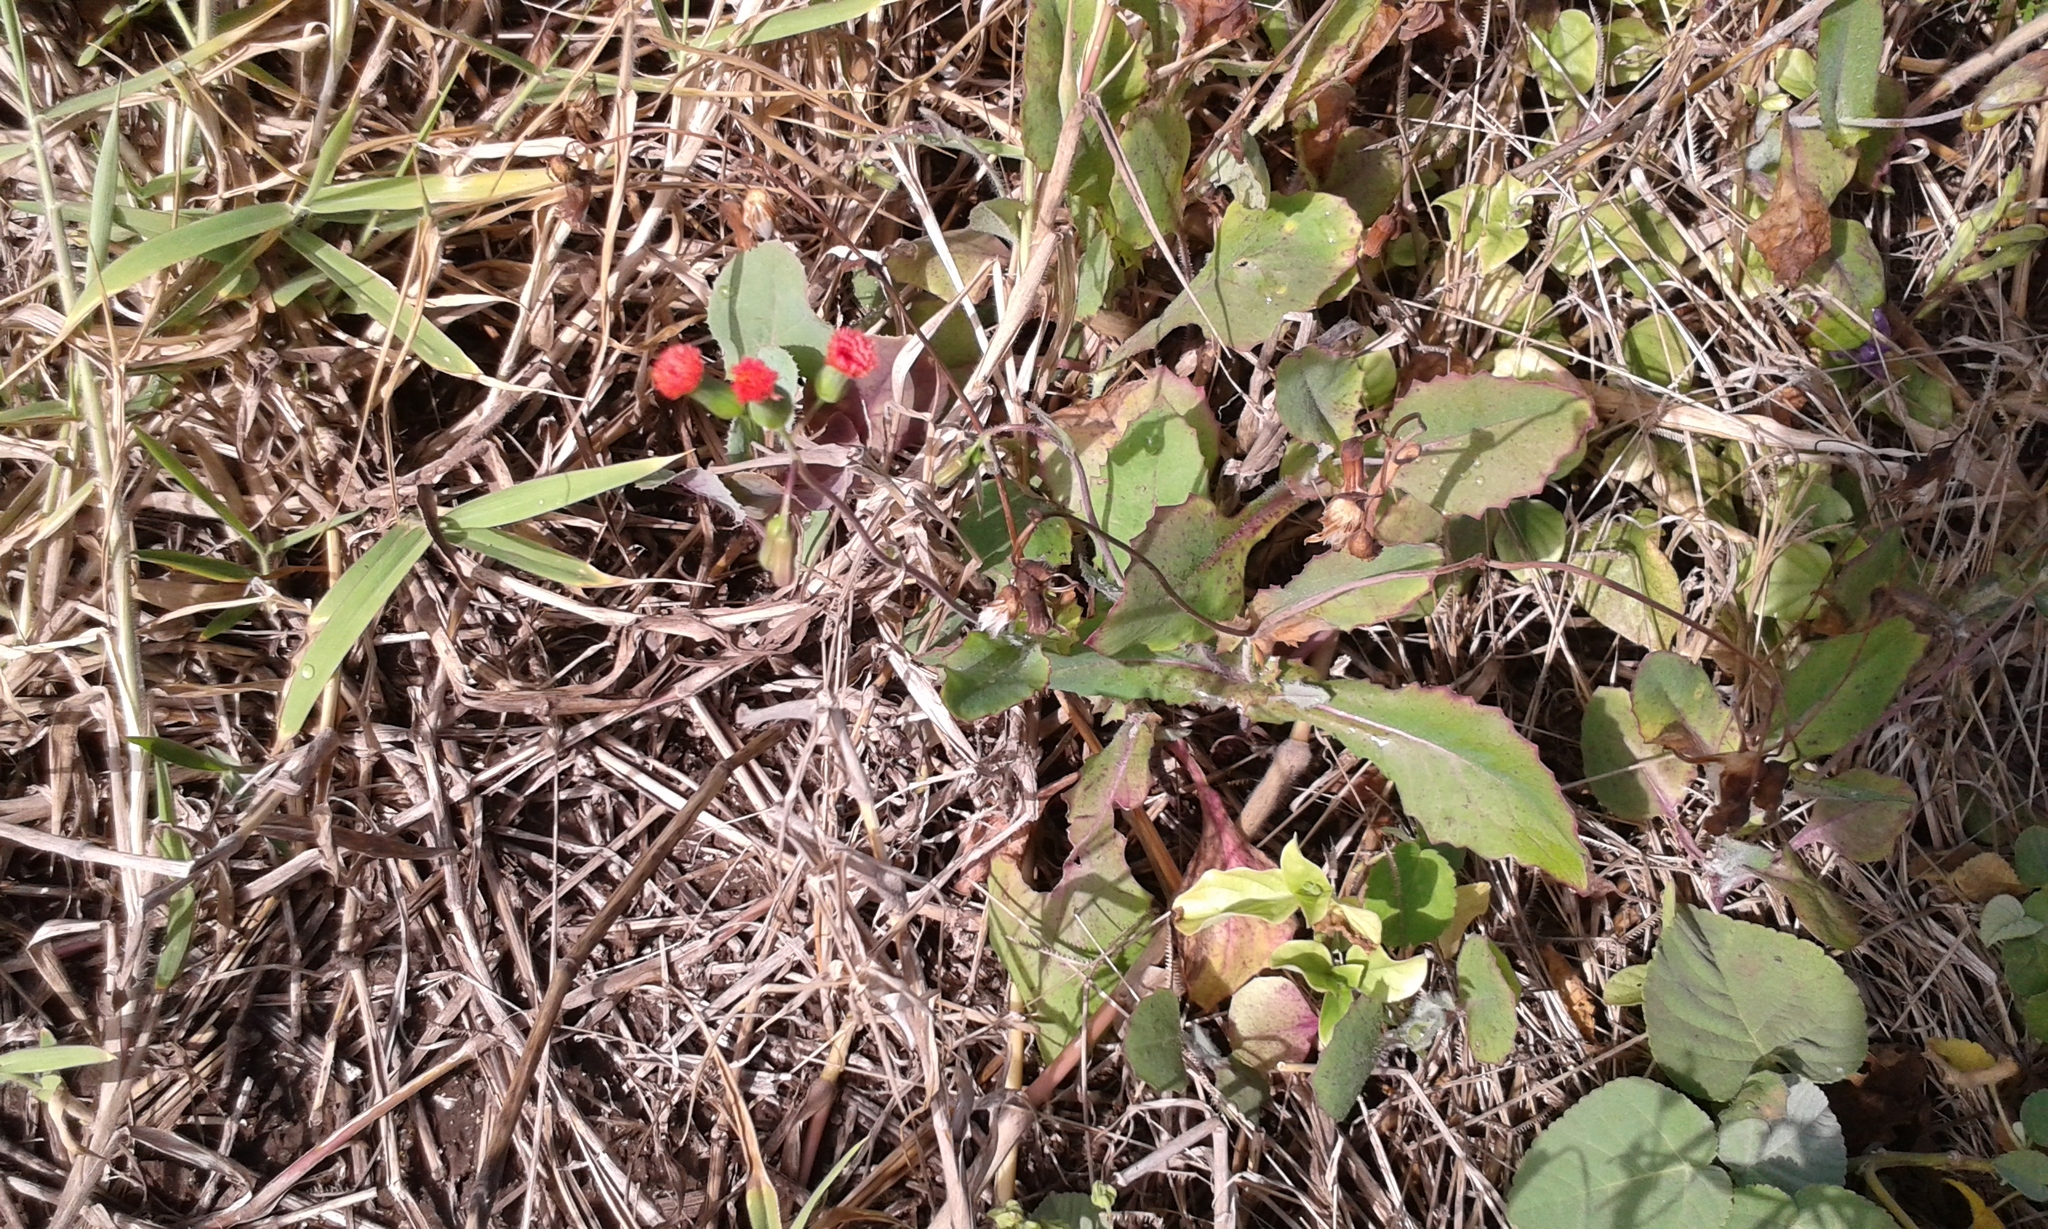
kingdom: Plantae
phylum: Tracheophyta
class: Magnoliopsida
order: Asterales
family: Asteraceae
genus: Emilia
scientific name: Emilia fosbergii
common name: Florida tasselflower
